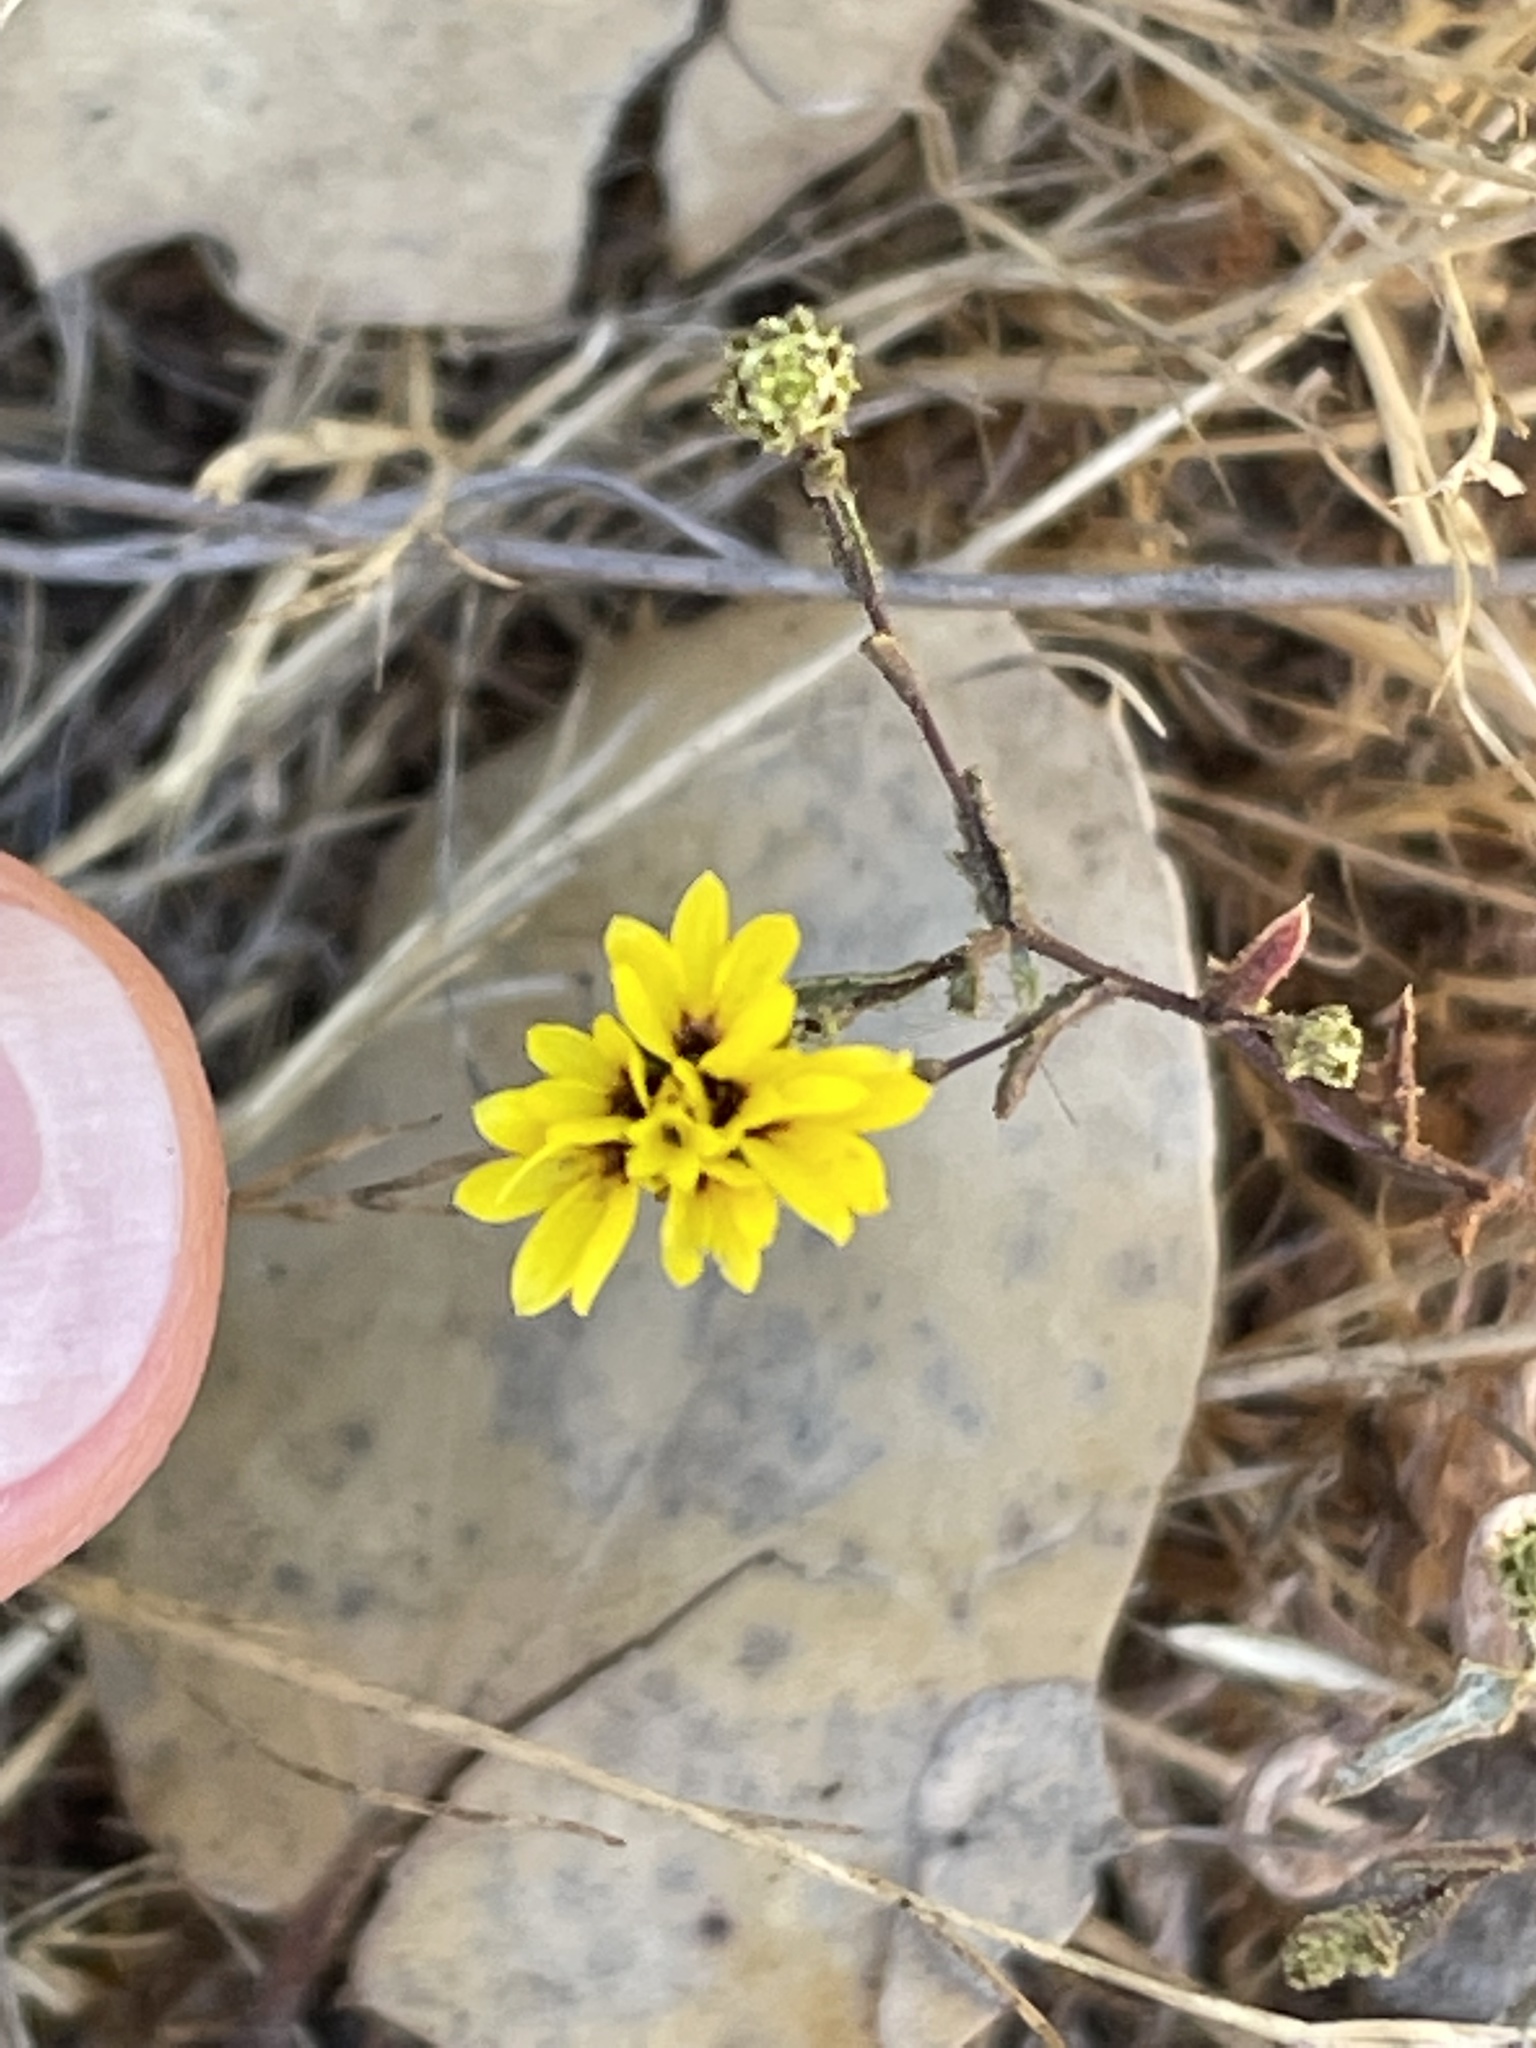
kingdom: Plantae
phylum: Tracheophyta
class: Magnoliopsida
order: Asterales
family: Asteraceae
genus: Lessingia
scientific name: Lessingia pectinata
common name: Valley lessingia
